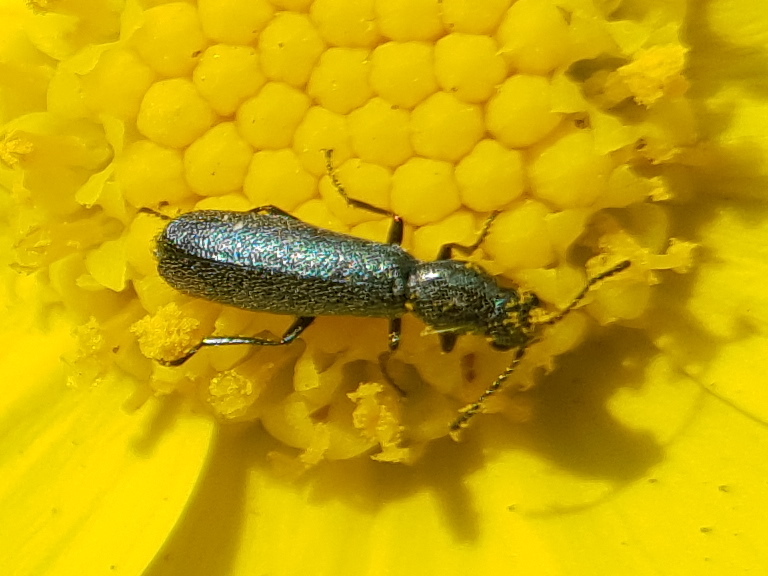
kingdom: Animalia
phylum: Arthropoda
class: Insecta
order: Coleoptera
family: Dasytidae
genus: Dolichophron
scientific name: Dolichophron
